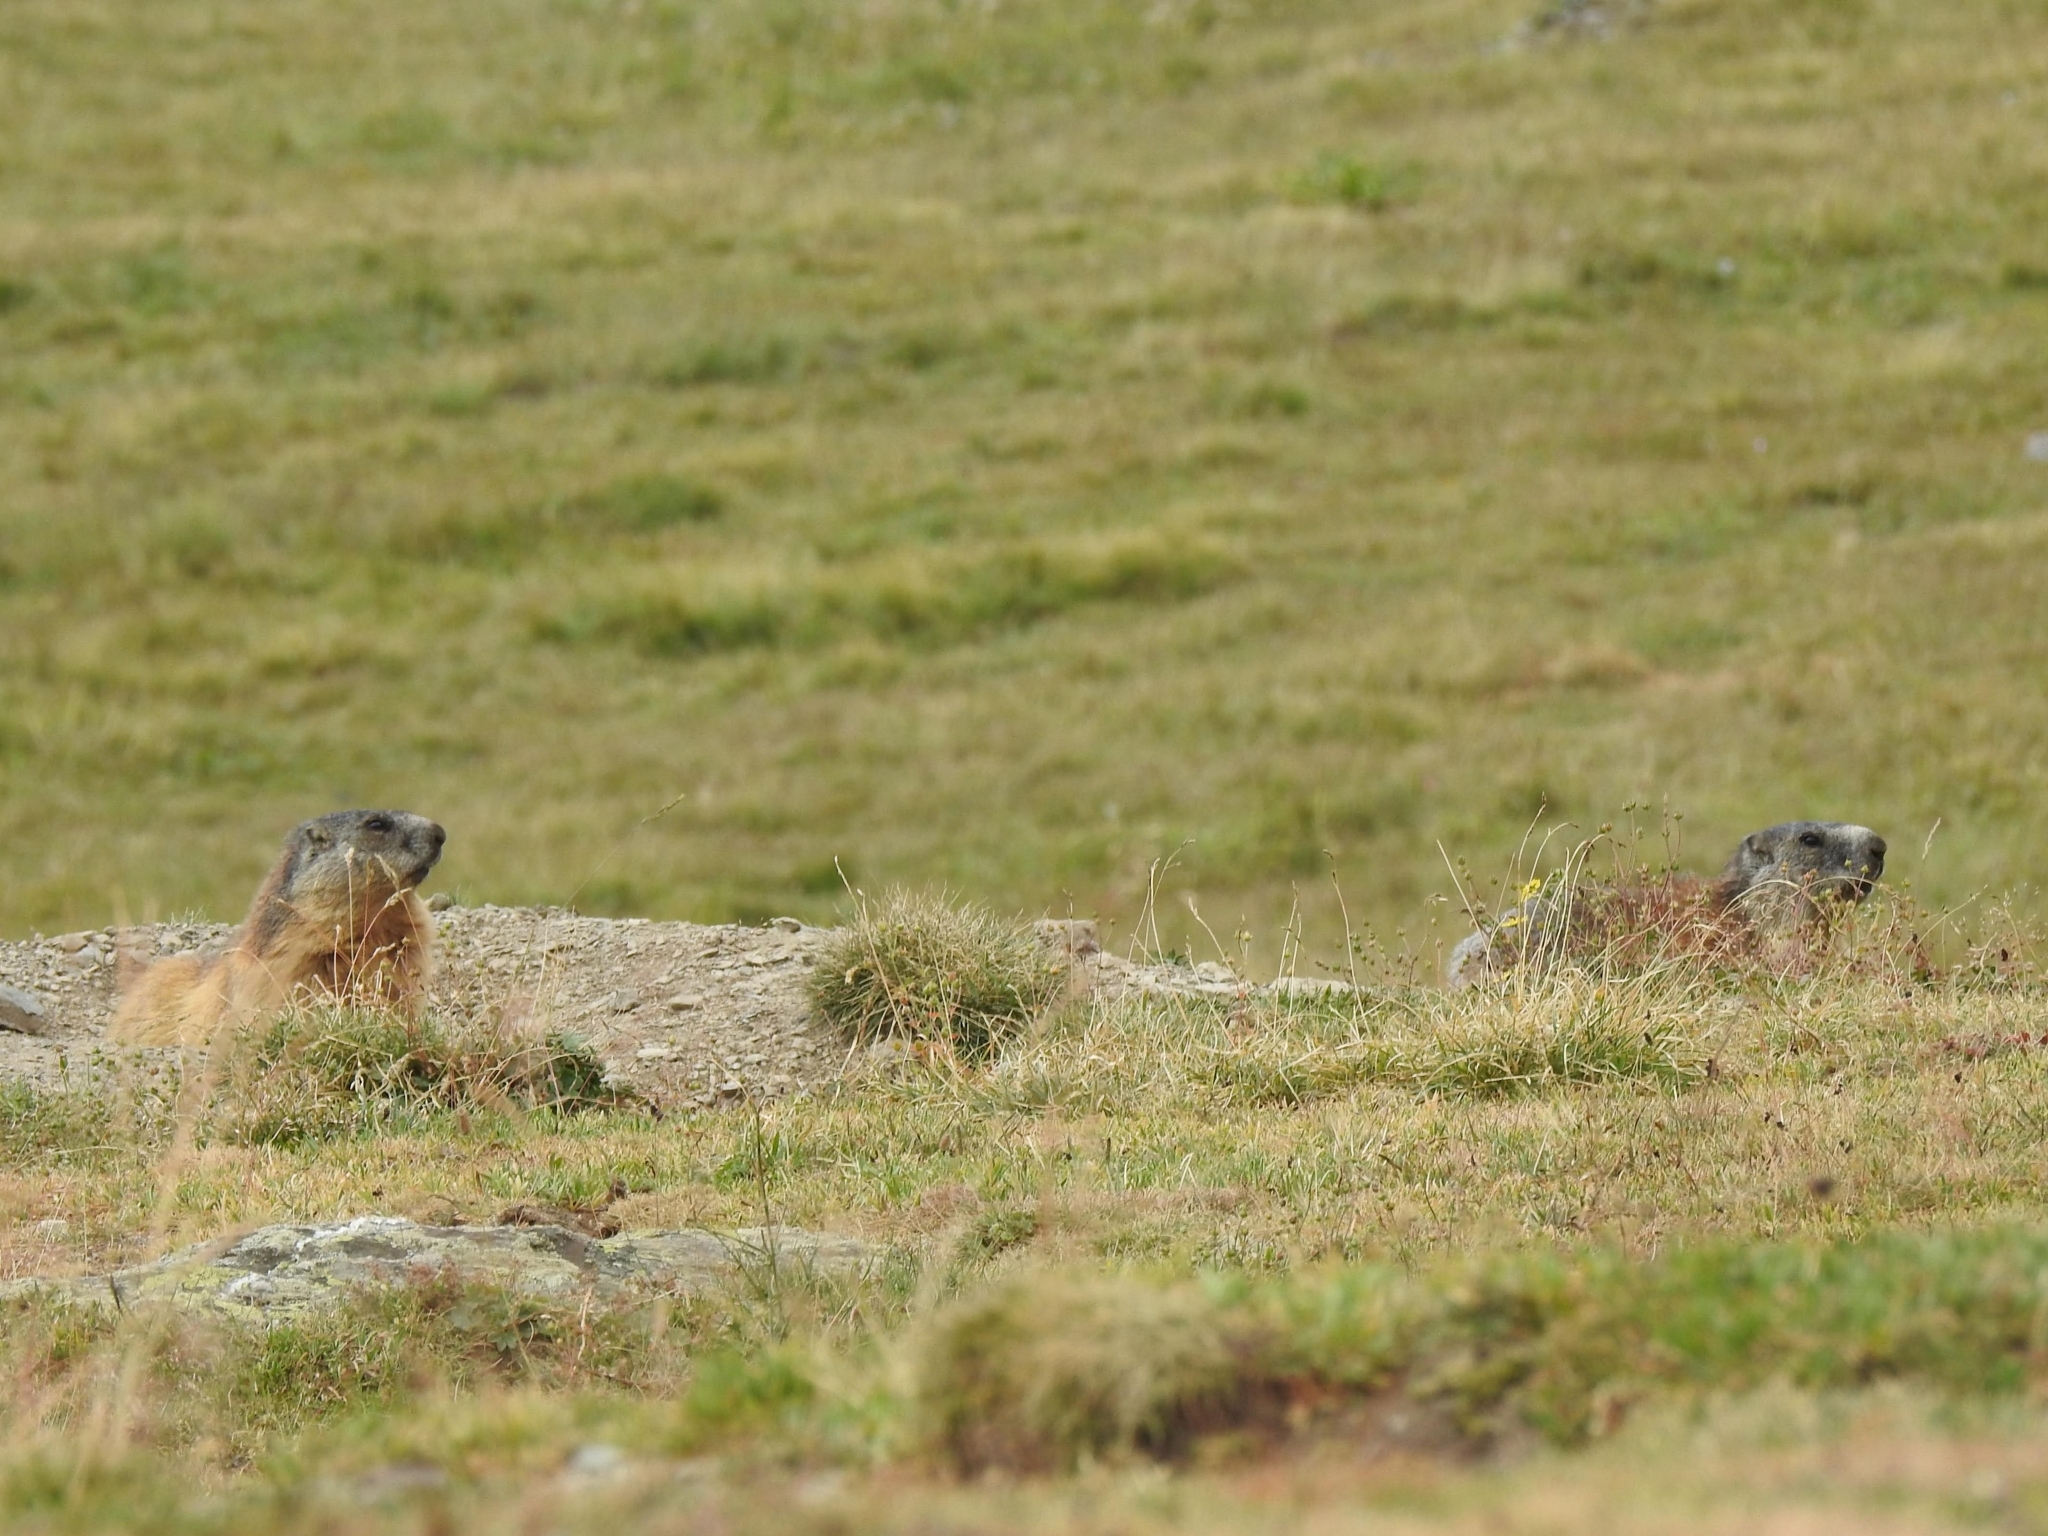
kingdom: Animalia
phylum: Chordata
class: Mammalia
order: Rodentia
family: Sciuridae
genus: Marmota
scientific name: Marmota marmota
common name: Alpine marmot
